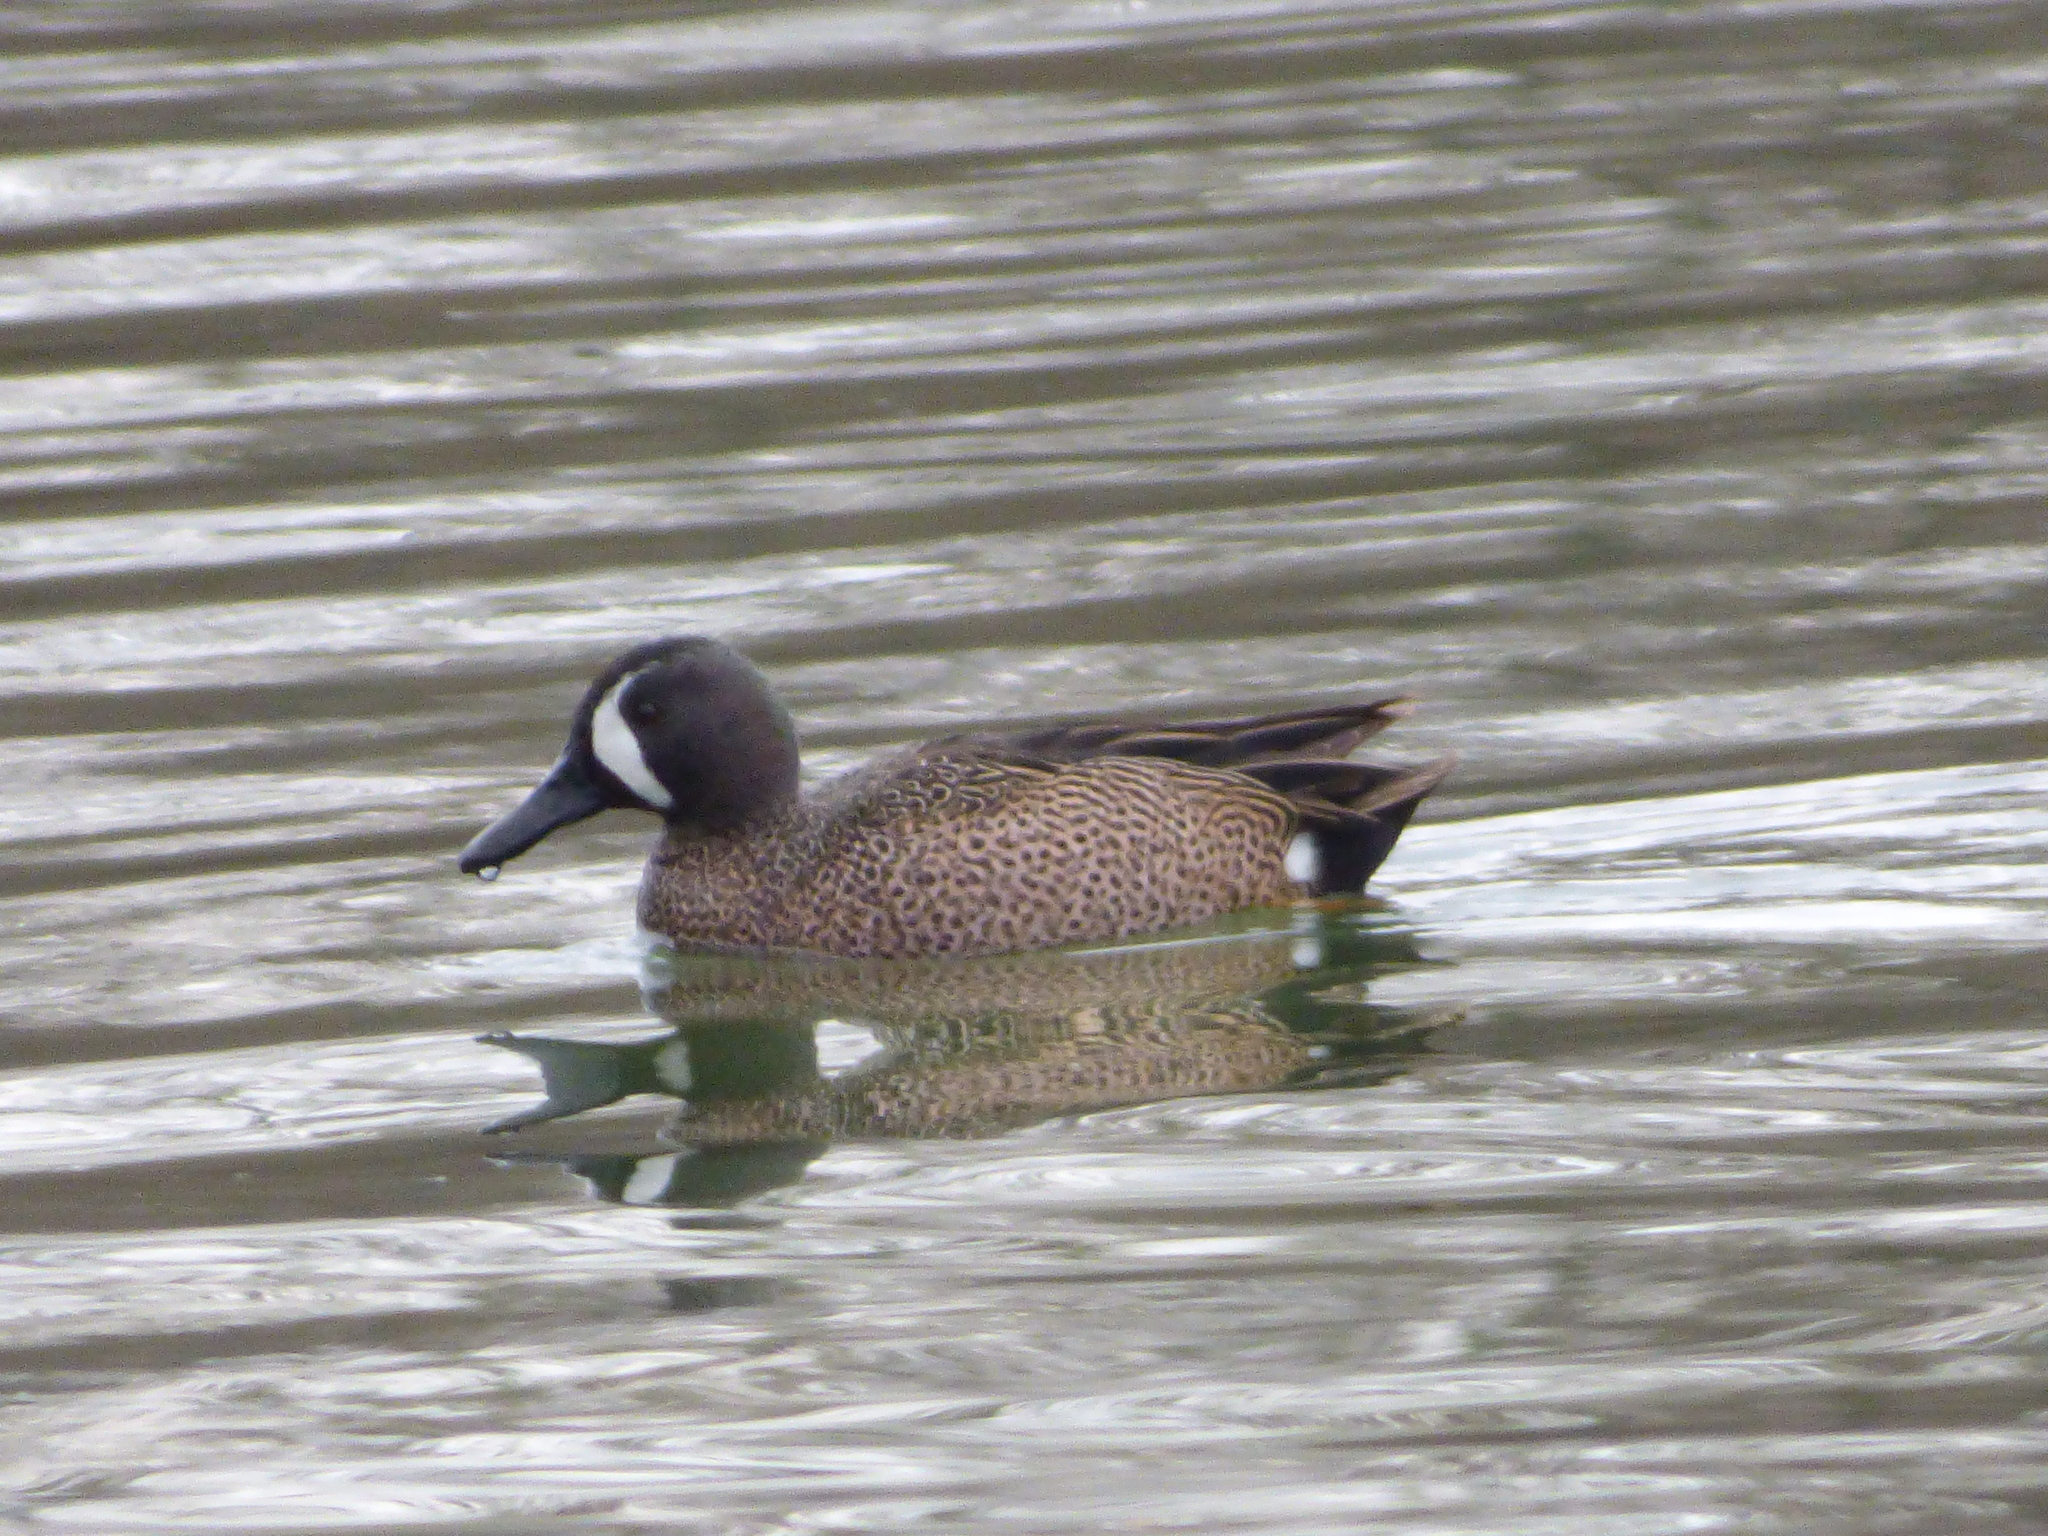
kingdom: Animalia
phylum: Chordata
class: Aves
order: Anseriformes
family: Anatidae
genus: Spatula
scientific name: Spatula discors
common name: Blue-winged teal
